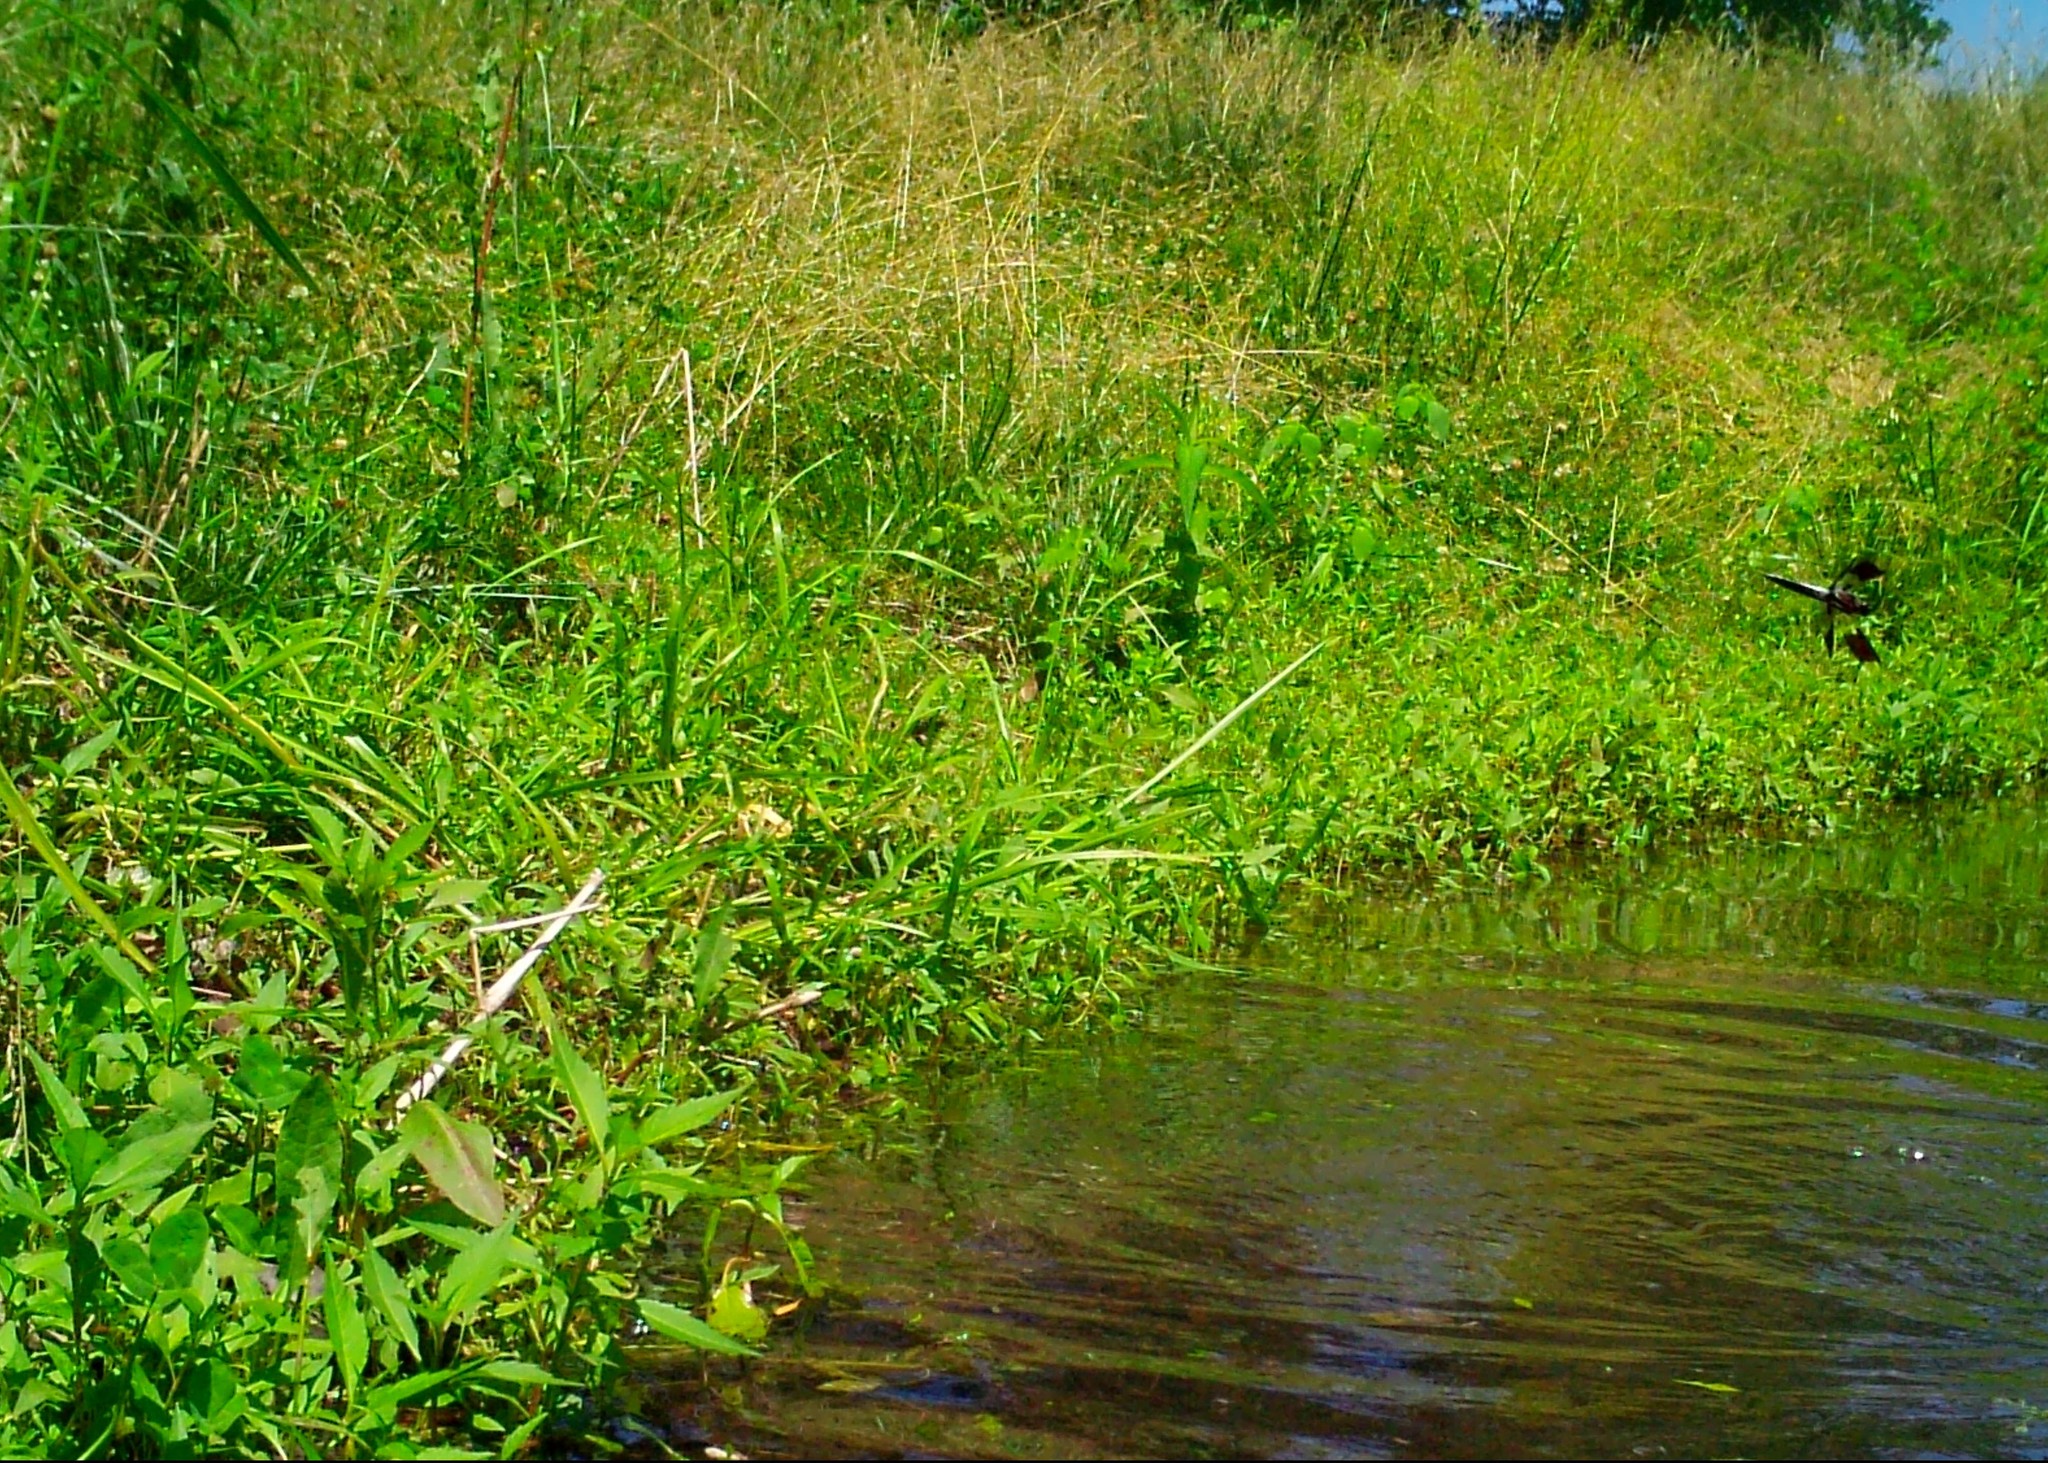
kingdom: Animalia
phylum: Arthropoda
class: Insecta
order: Odonata
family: Libellulidae
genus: Plathemis
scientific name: Plathemis lydia
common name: Common whitetail
